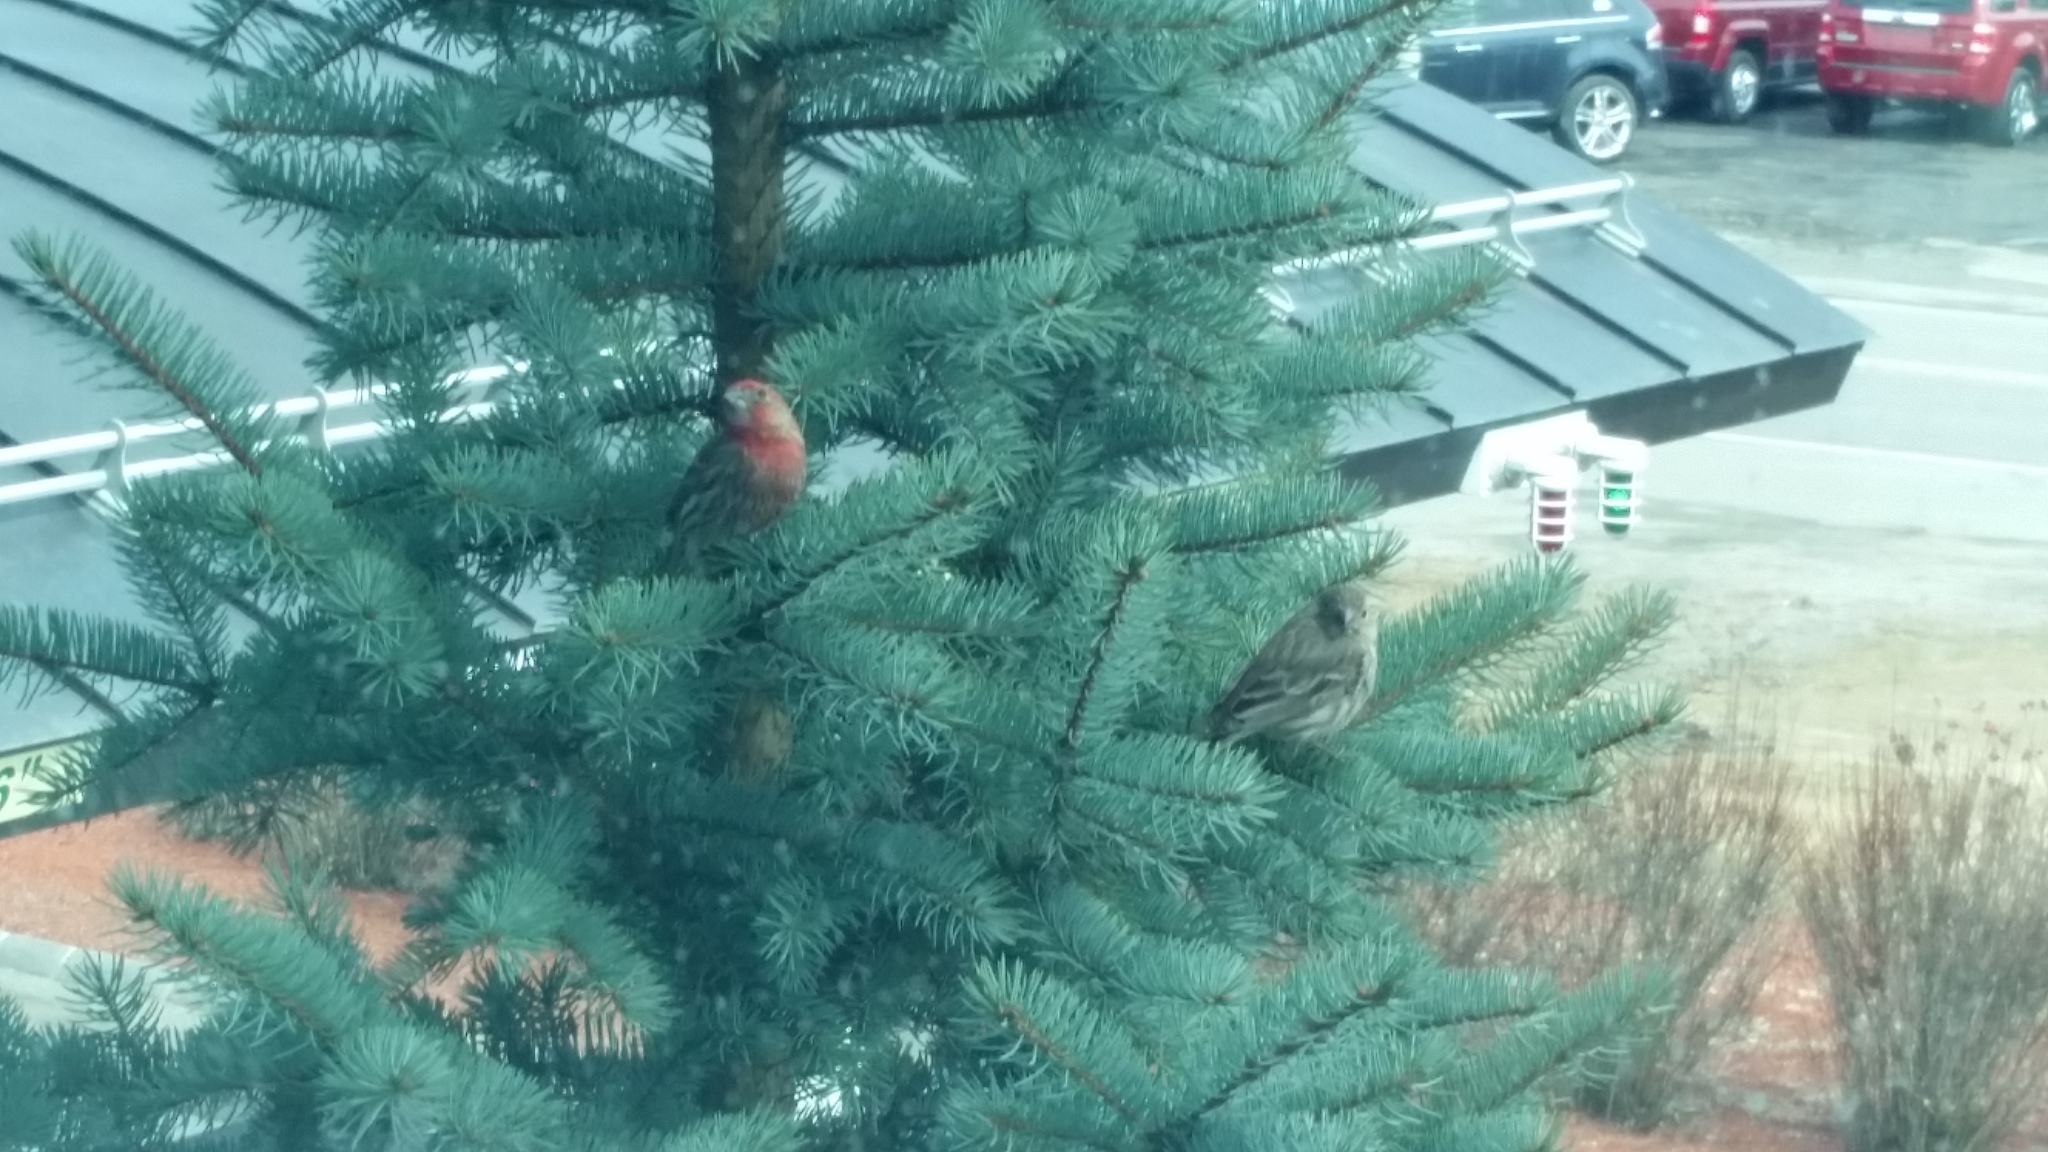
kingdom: Animalia
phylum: Chordata
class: Aves
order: Passeriformes
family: Fringillidae
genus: Haemorhous
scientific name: Haemorhous mexicanus
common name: House finch
